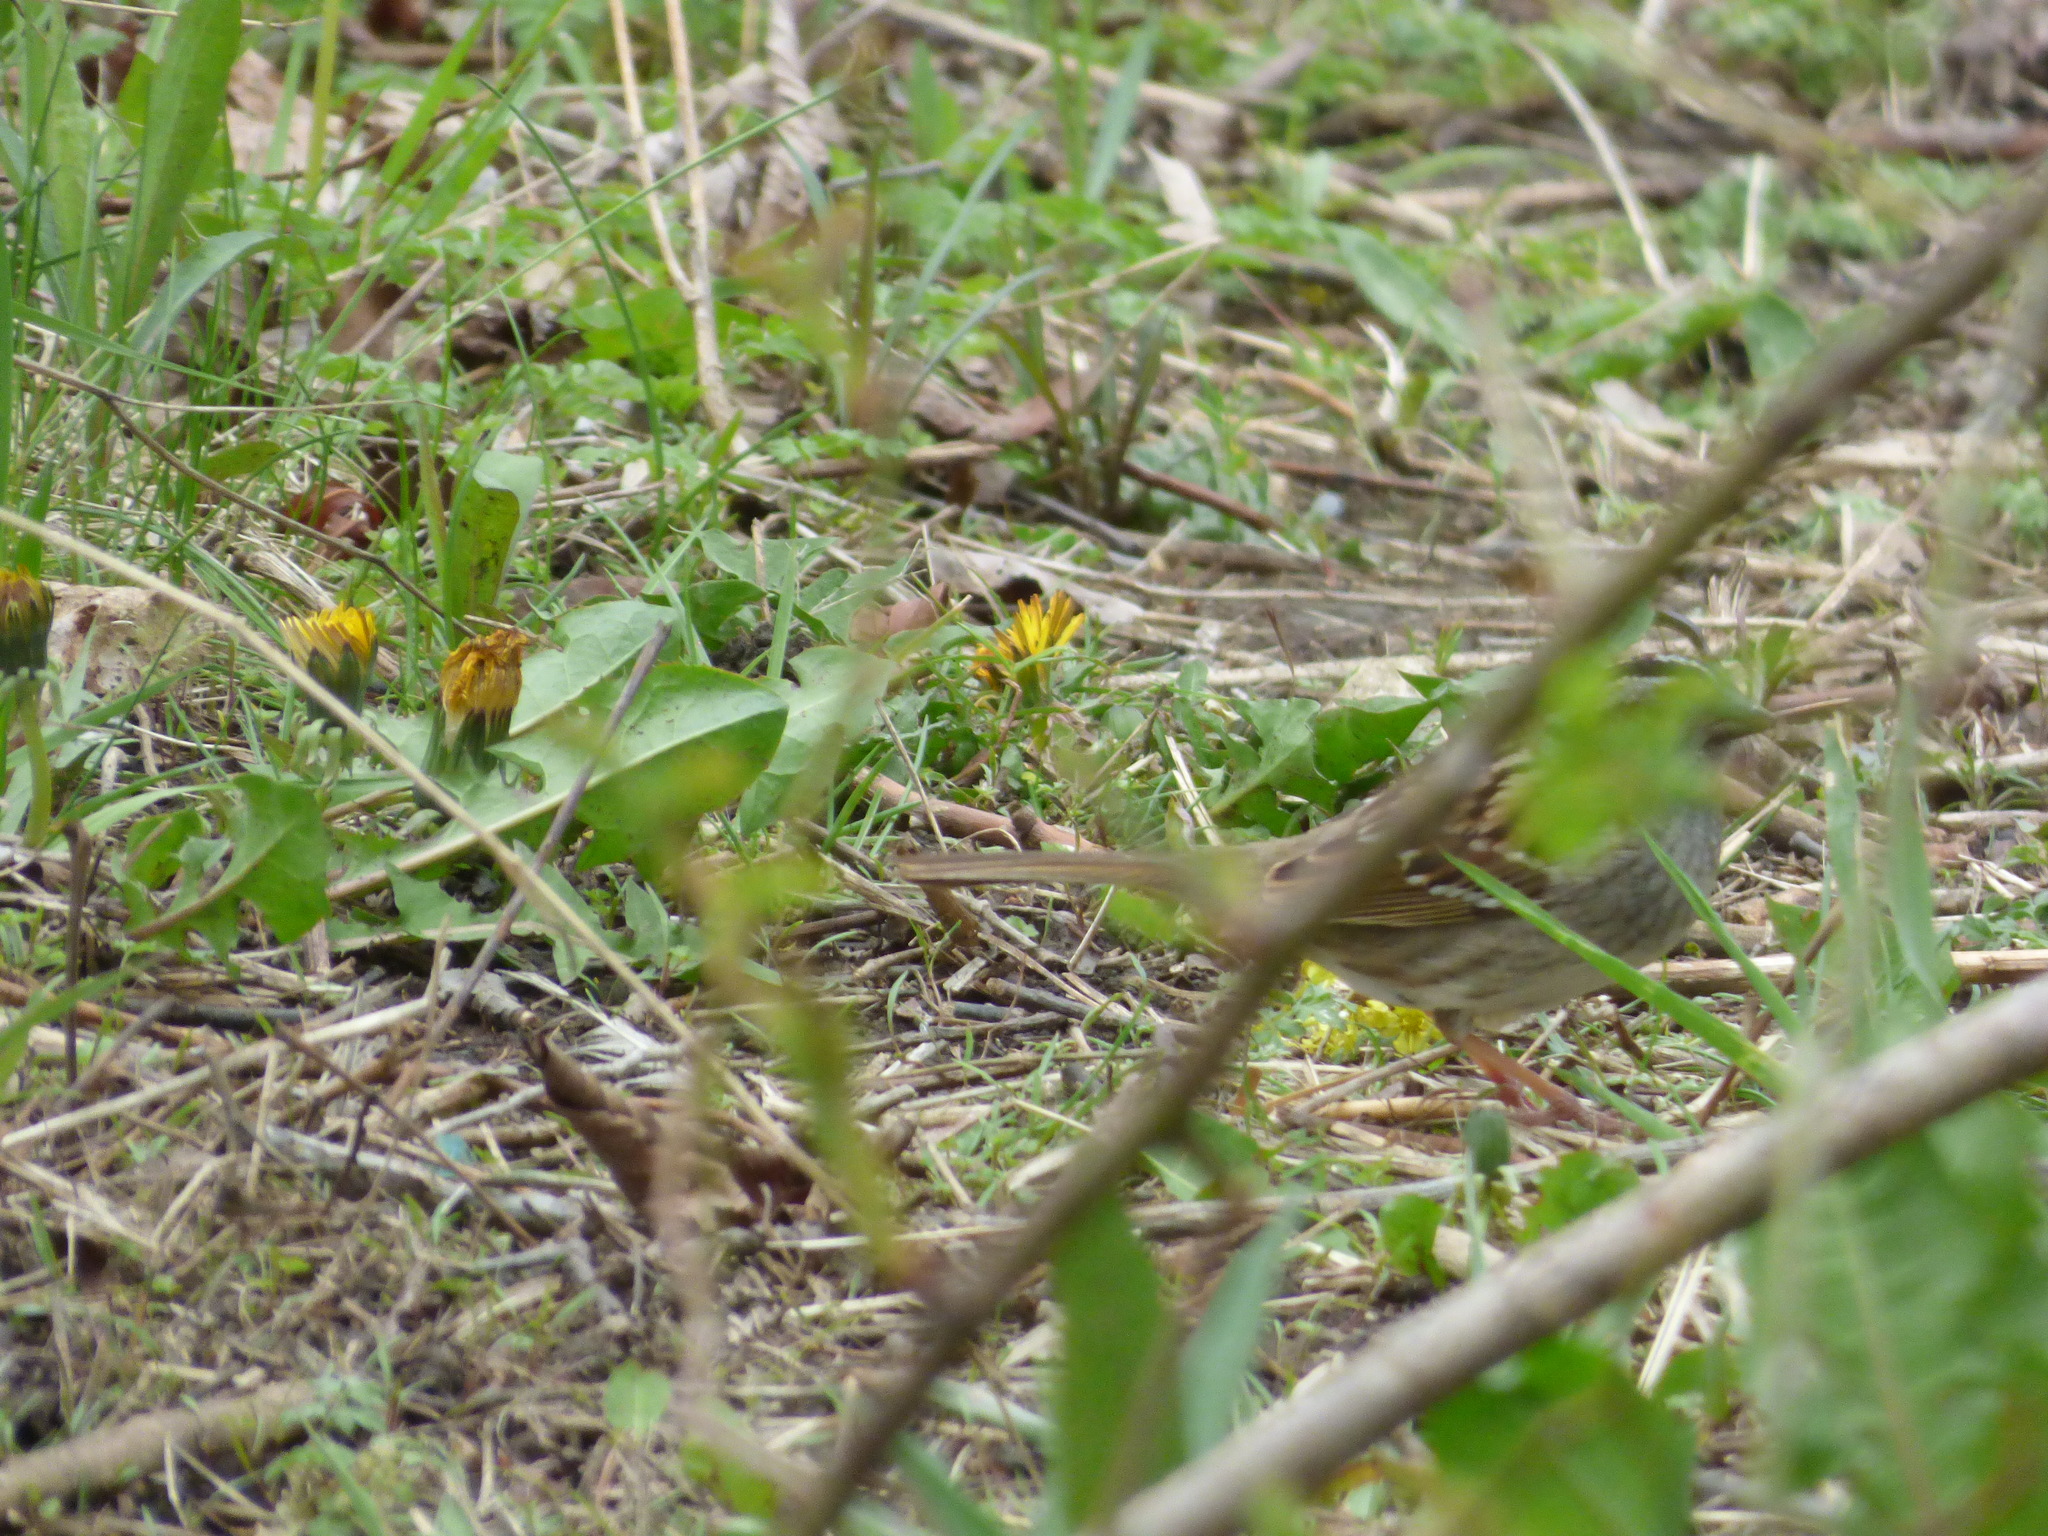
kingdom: Animalia
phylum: Chordata
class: Aves
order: Passeriformes
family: Passerellidae
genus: Zonotrichia
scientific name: Zonotrichia albicollis
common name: White-throated sparrow
